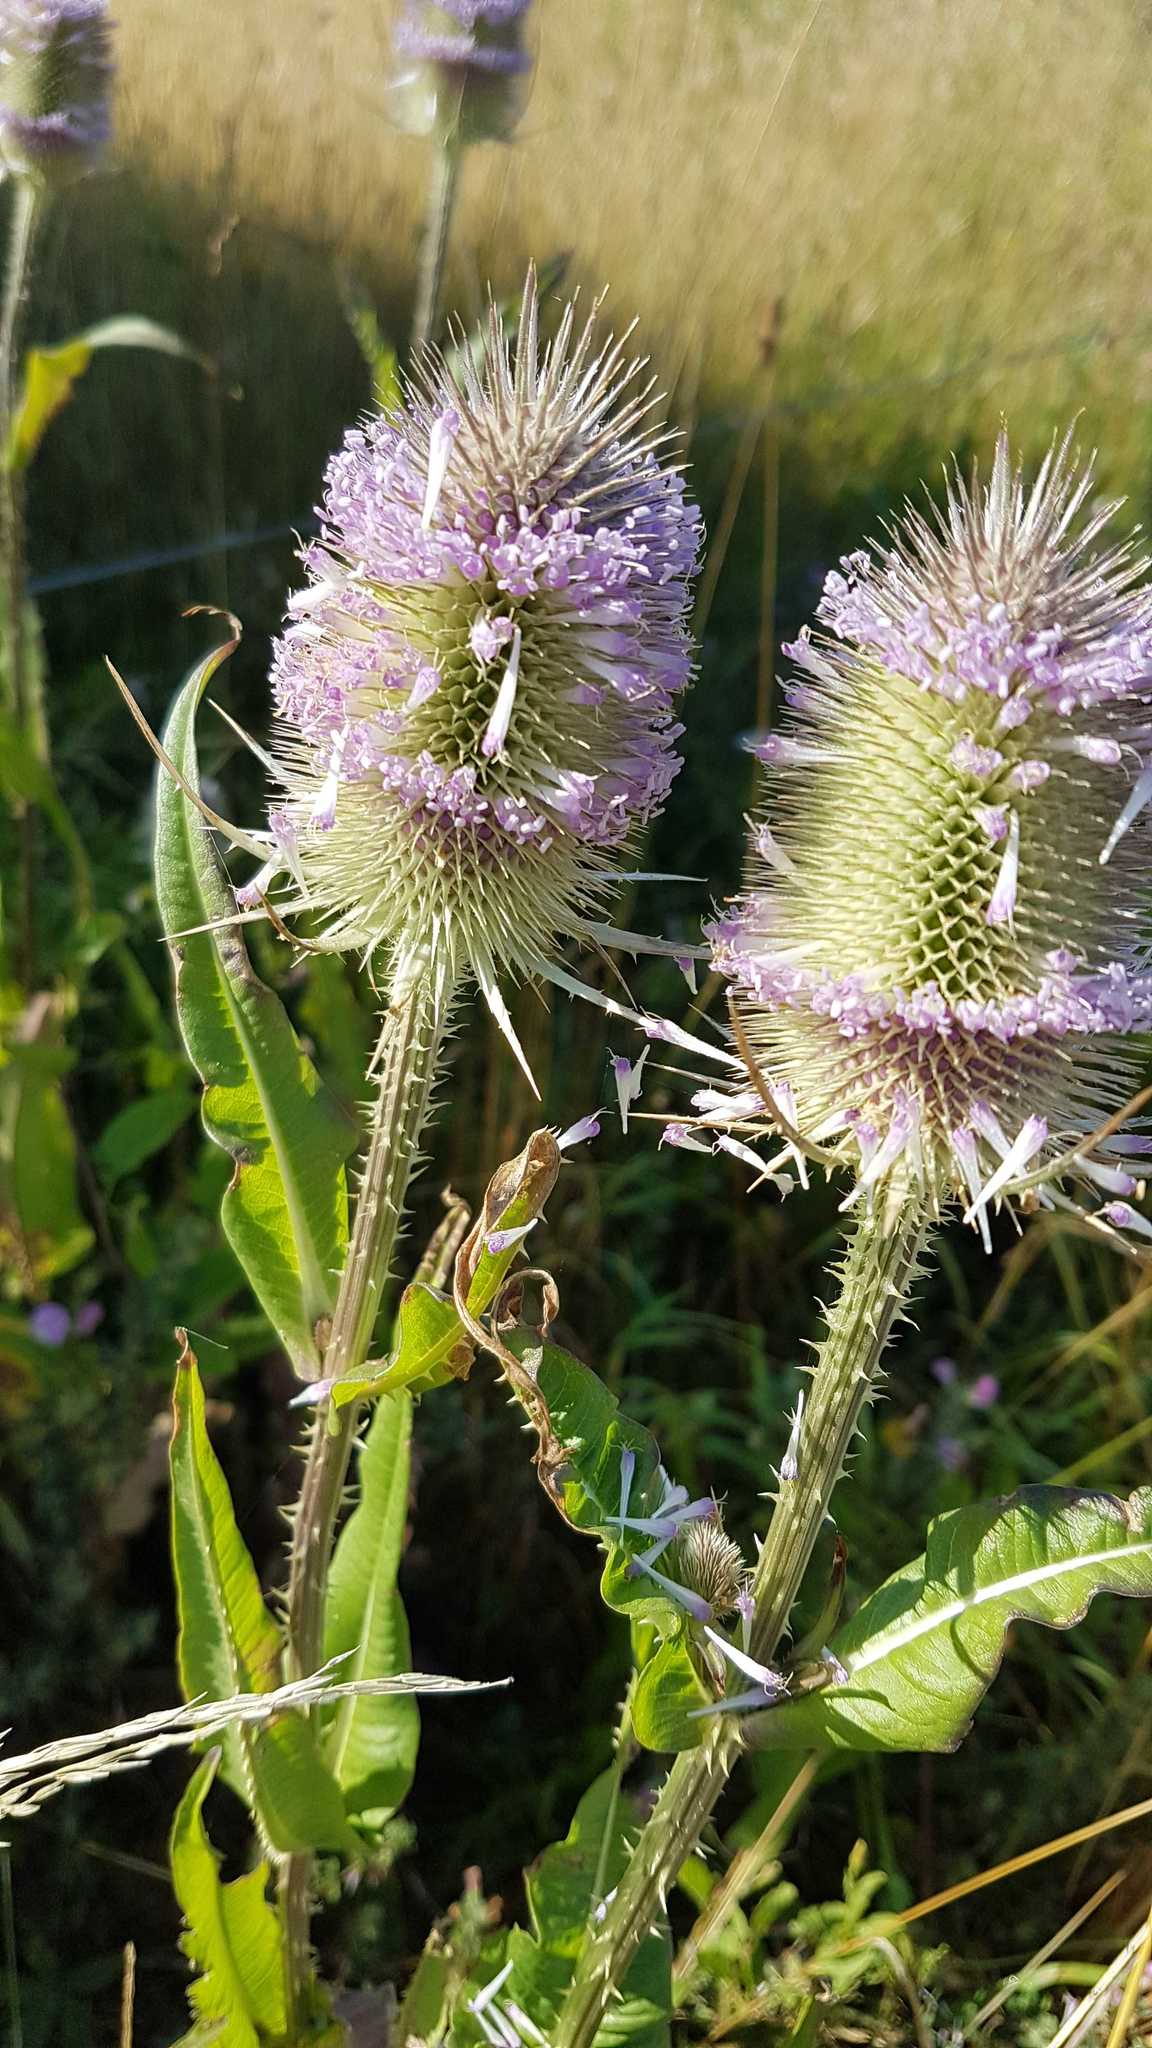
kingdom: Plantae
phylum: Tracheophyta
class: Magnoliopsida
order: Dipsacales
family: Caprifoliaceae
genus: Dipsacus
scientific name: Dipsacus fullonum
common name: Teasel
